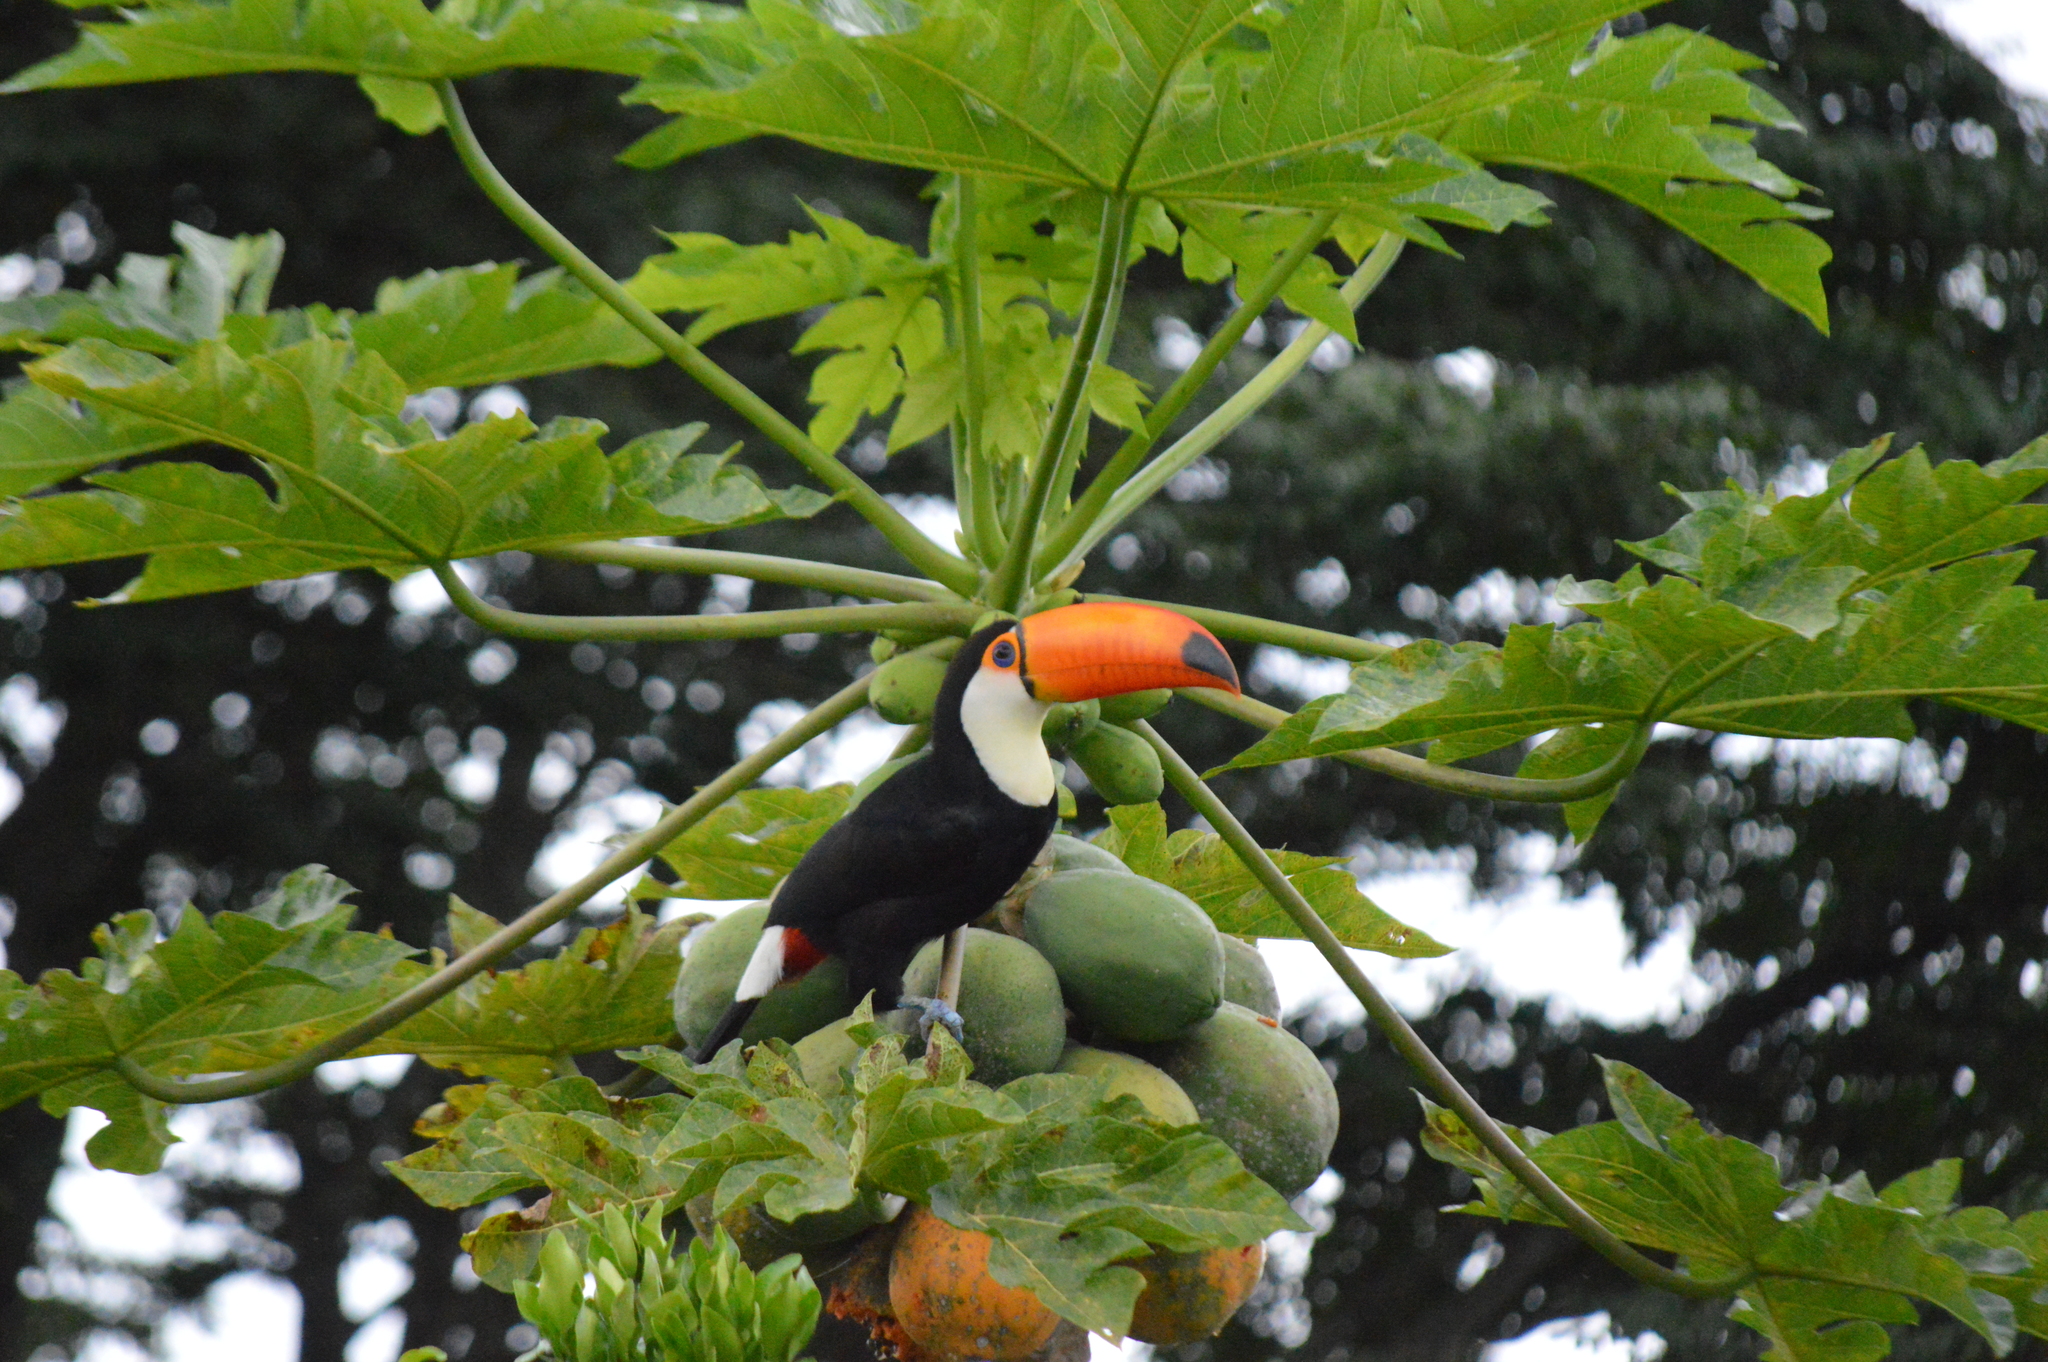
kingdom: Animalia
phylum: Chordata
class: Aves
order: Piciformes
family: Ramphastidae
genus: Ramphastos
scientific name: Ramphastos toco
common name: Toco toucan
